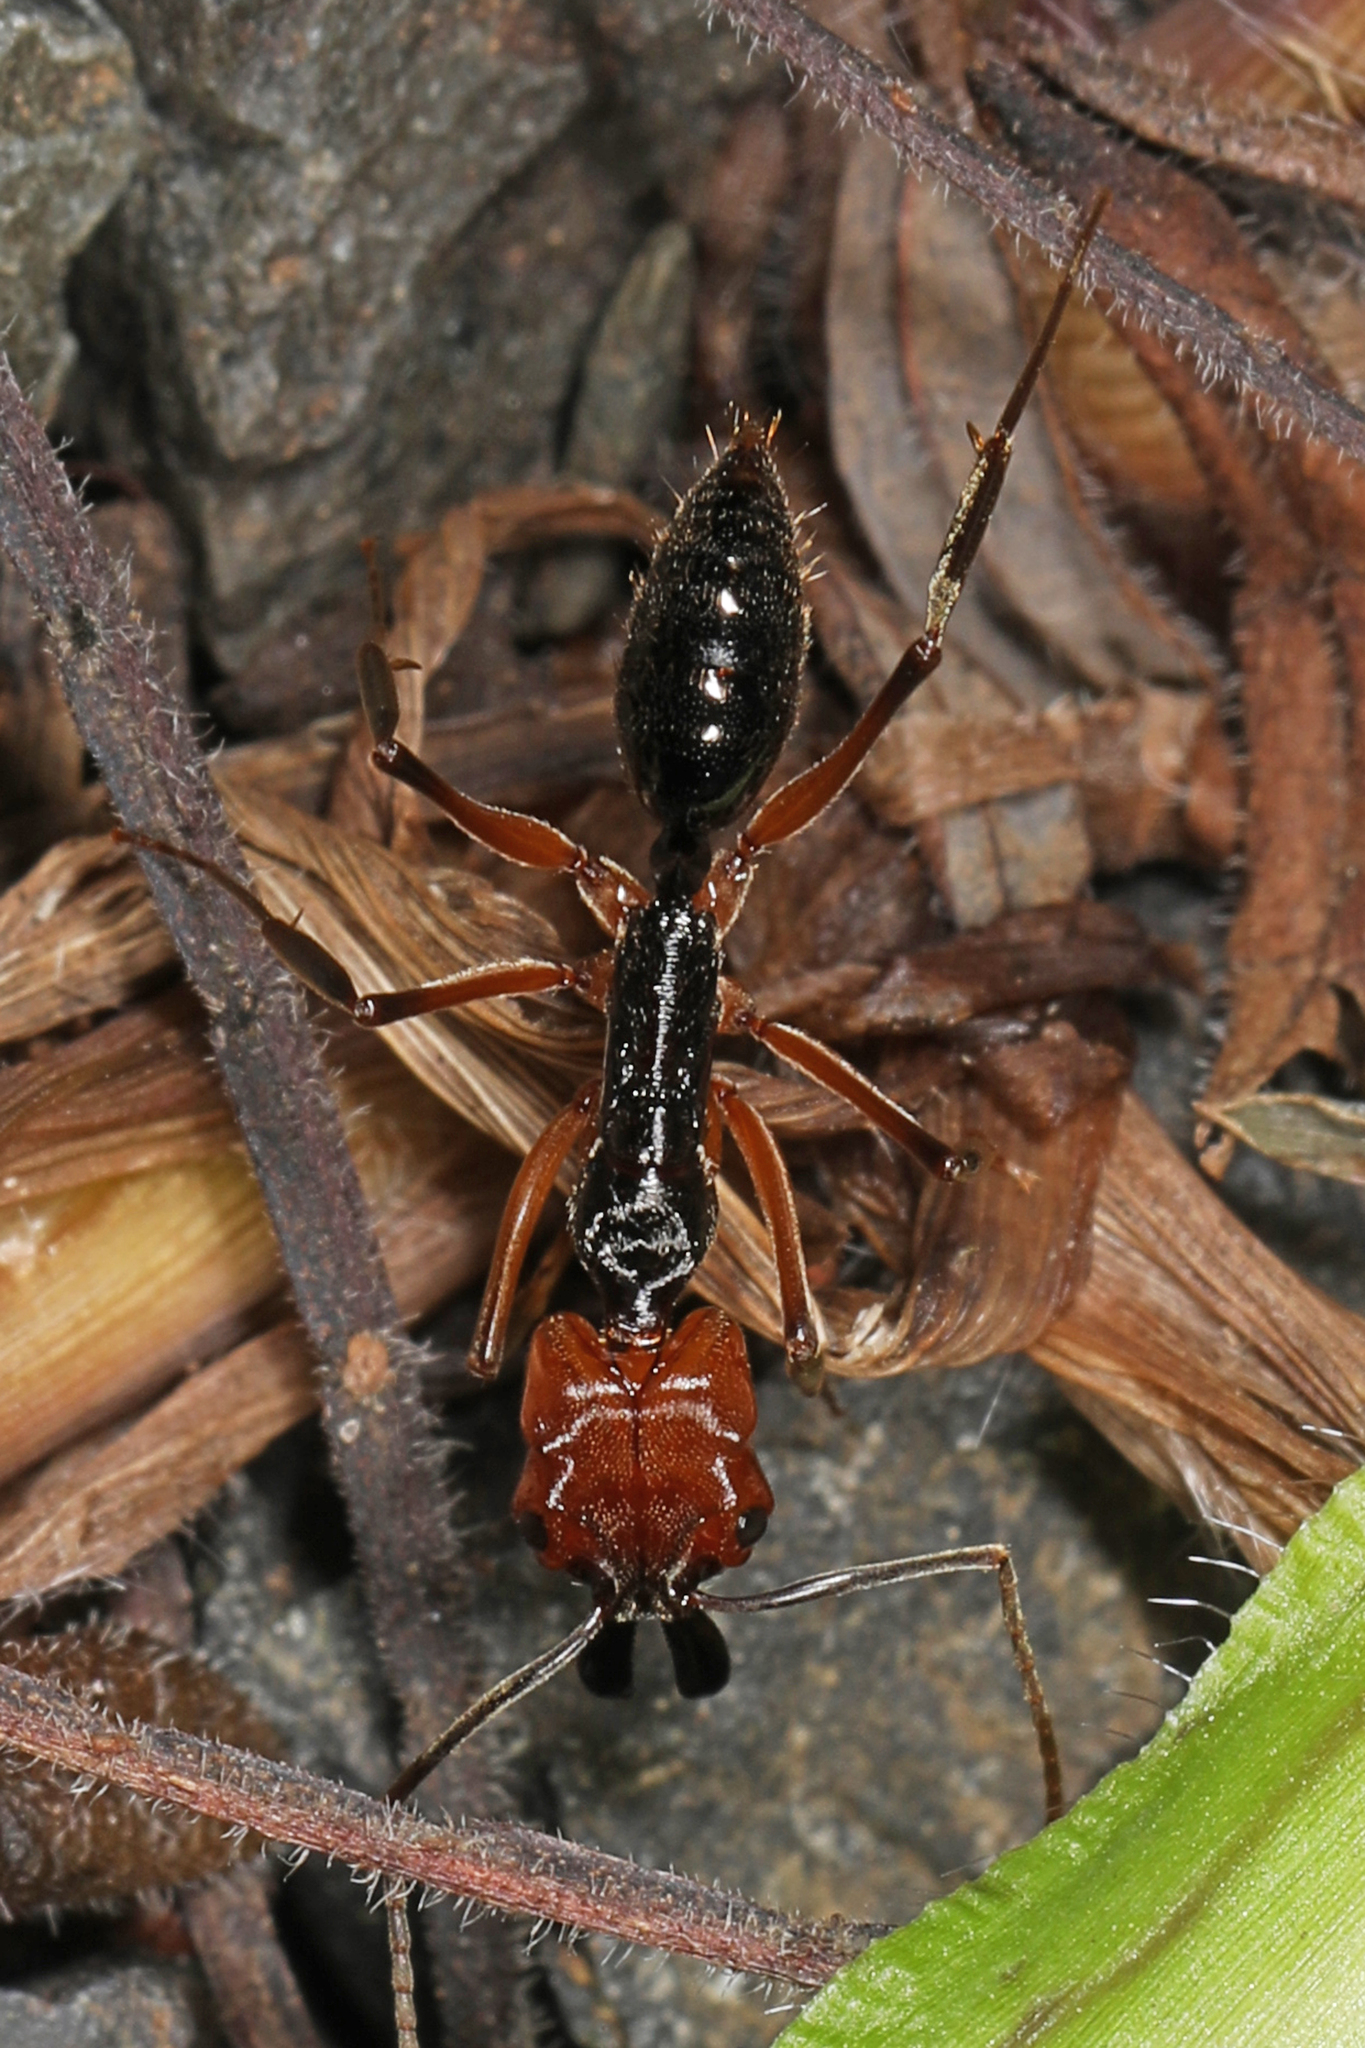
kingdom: Animalia
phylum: Arthropoda
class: Insecta
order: Hymenoptera
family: Formicidae
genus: Odontomachus
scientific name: Odontomachus erythrocephalus
